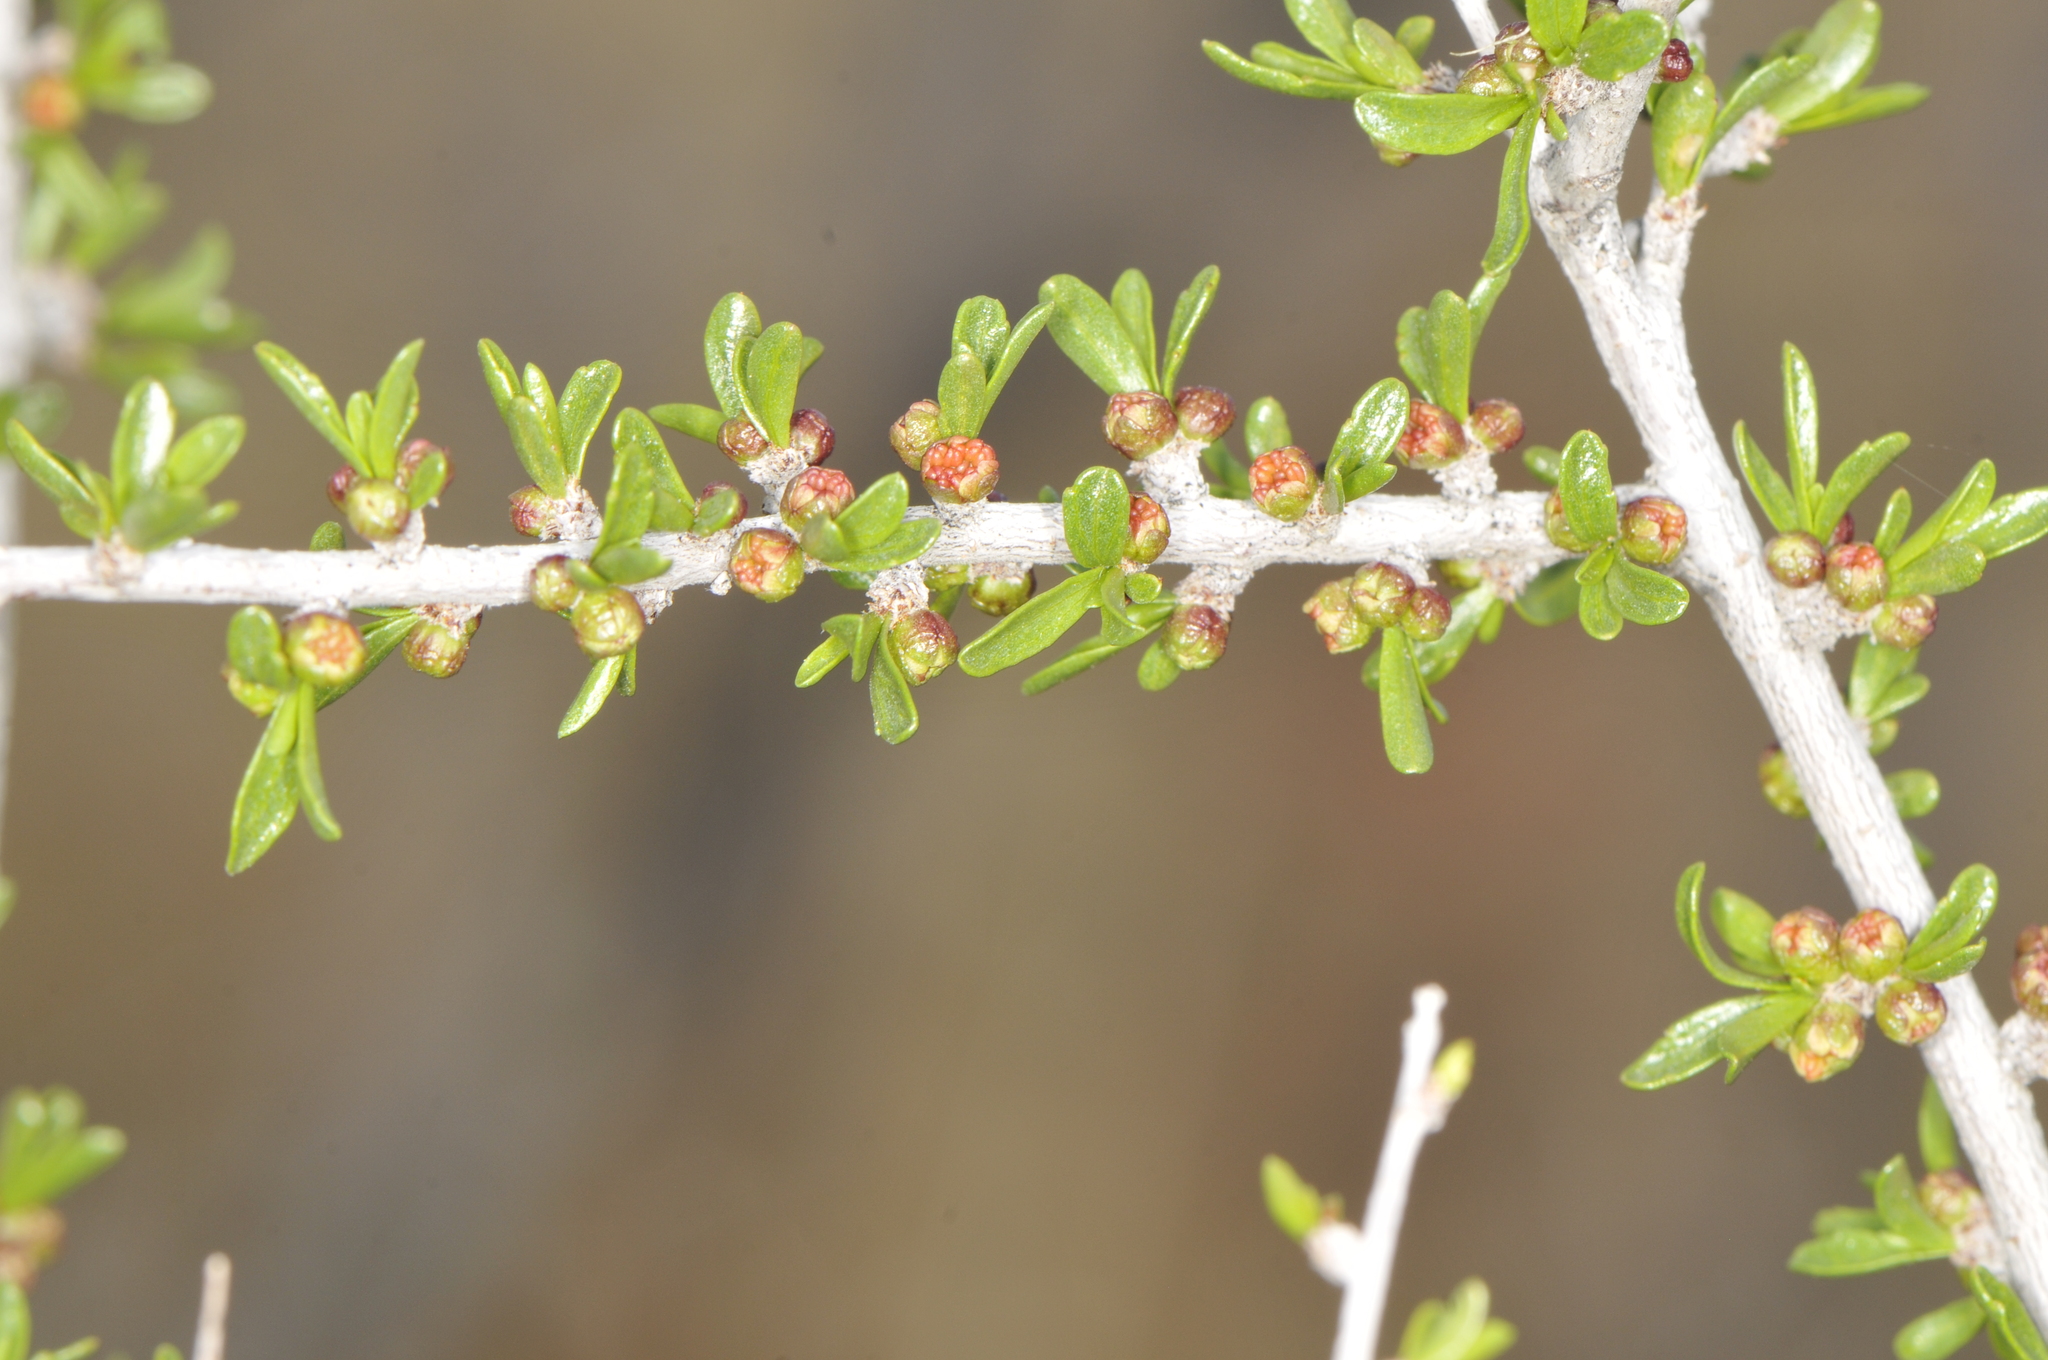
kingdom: Plantae
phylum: Tracheophyta
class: Magnoliopsida
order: Rosales
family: Rosaceae
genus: Prunus
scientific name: Prunus fasciculata
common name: Desert almond
